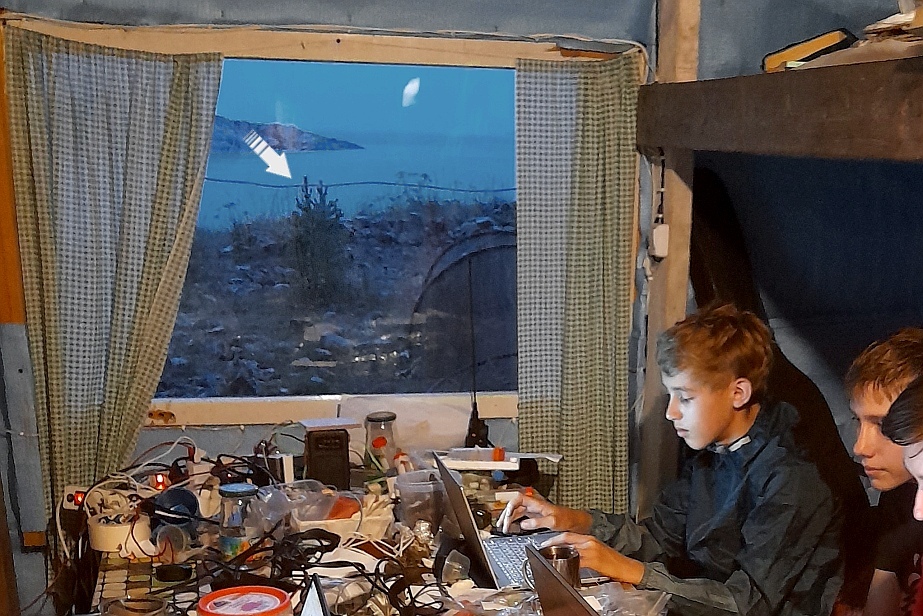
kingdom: Plantae
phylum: Tracheophyta
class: Pinopsida
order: Pinales
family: Pinaceae
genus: Pinus
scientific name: Pinus sylvestris
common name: Scots pine
